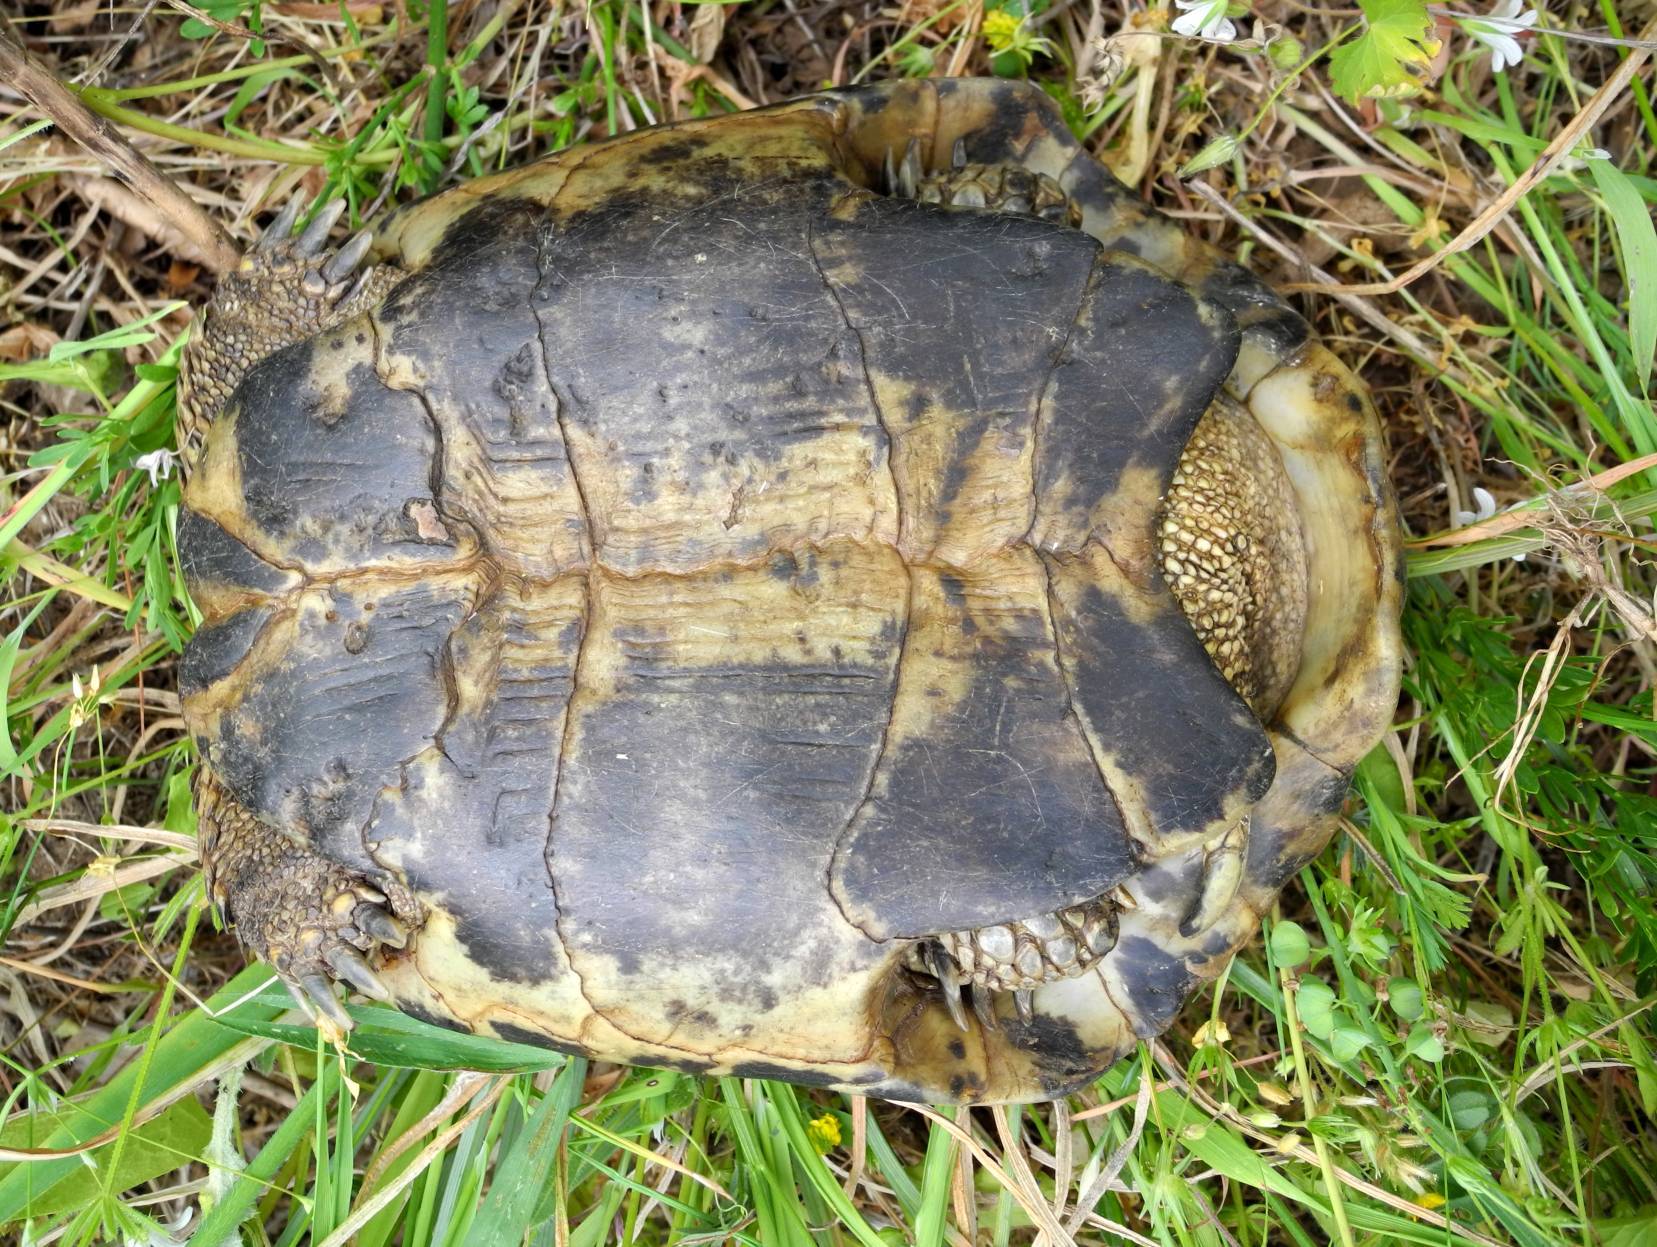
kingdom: Animalia
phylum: Chordata
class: Testudines
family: Testudinidae
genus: Testudo
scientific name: Testudo hermanni
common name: Hermann's tortoise
